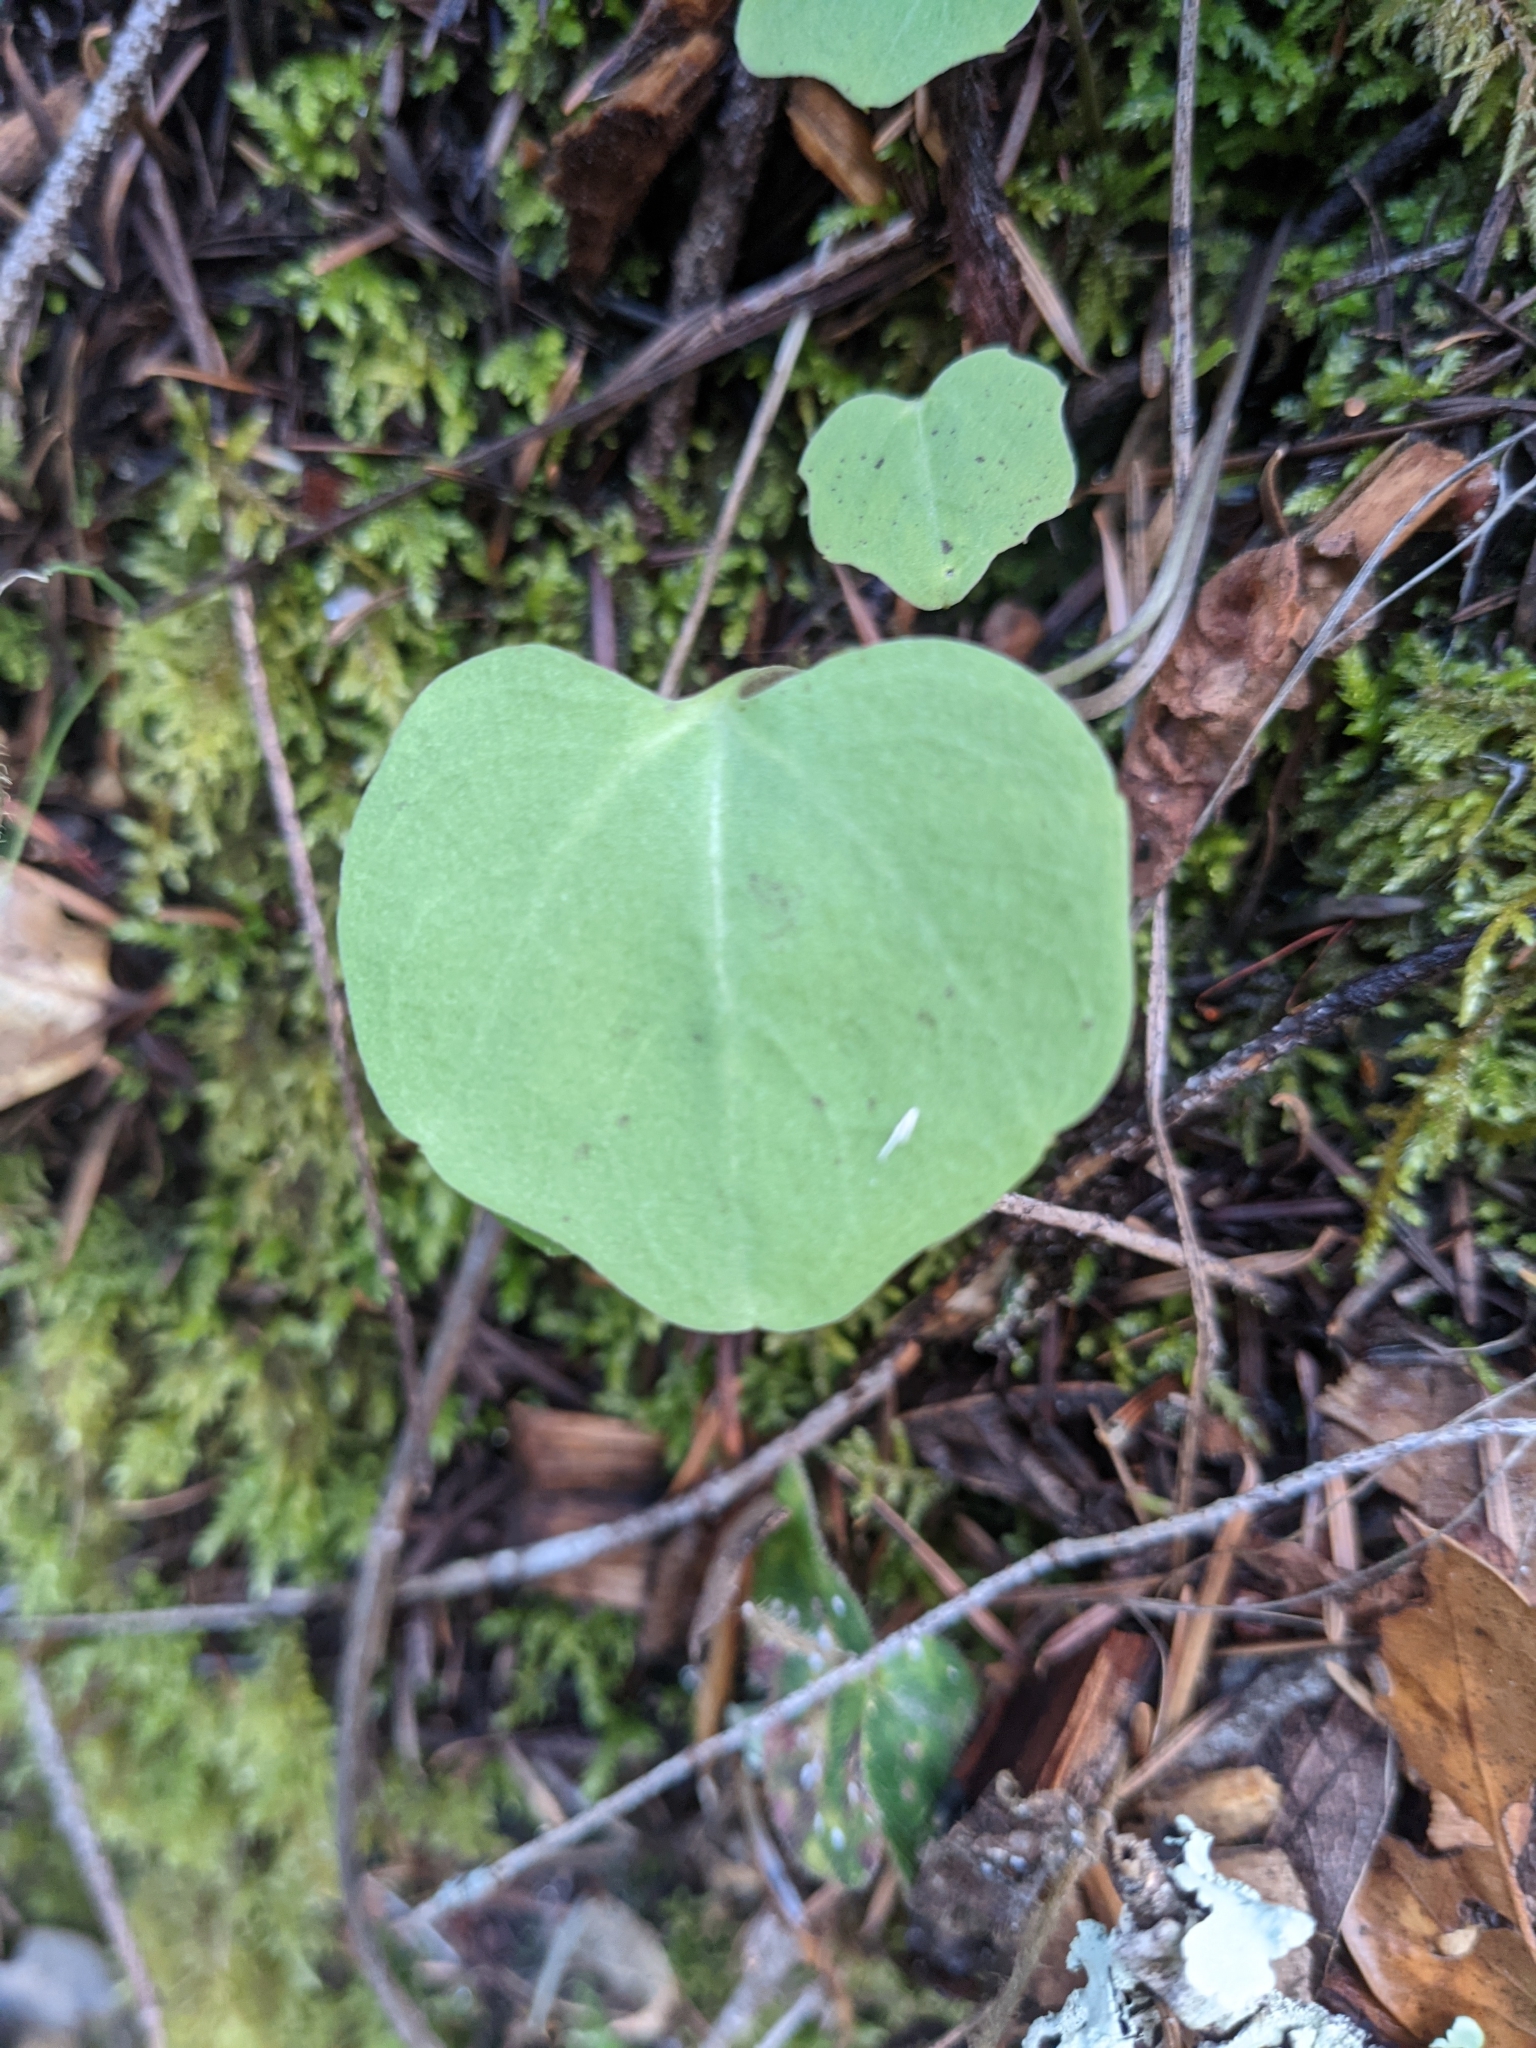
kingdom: Plantae
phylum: Tracheophyta
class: Magnoliopsida
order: Brassicales
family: Brassicaceae
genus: Cardamine
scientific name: Cardamine californica
